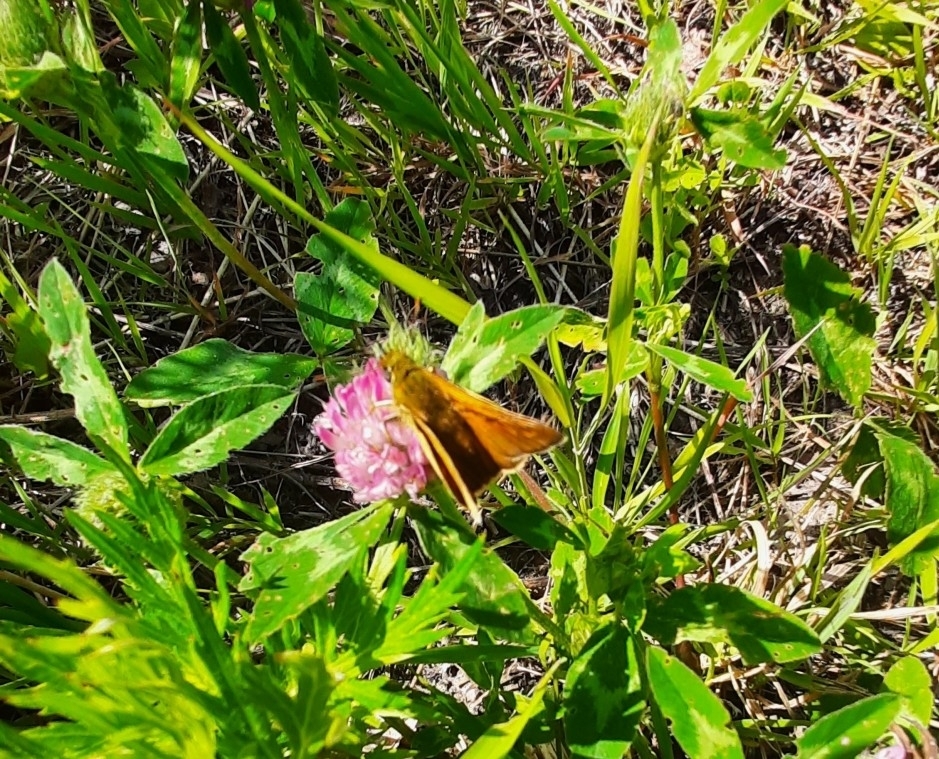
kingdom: Animalia
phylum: Arthropoda
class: Insecta
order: Lepidoptera
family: Hesperiidae
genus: Ochlodes
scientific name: Ochlodes venata
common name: Large skipper
